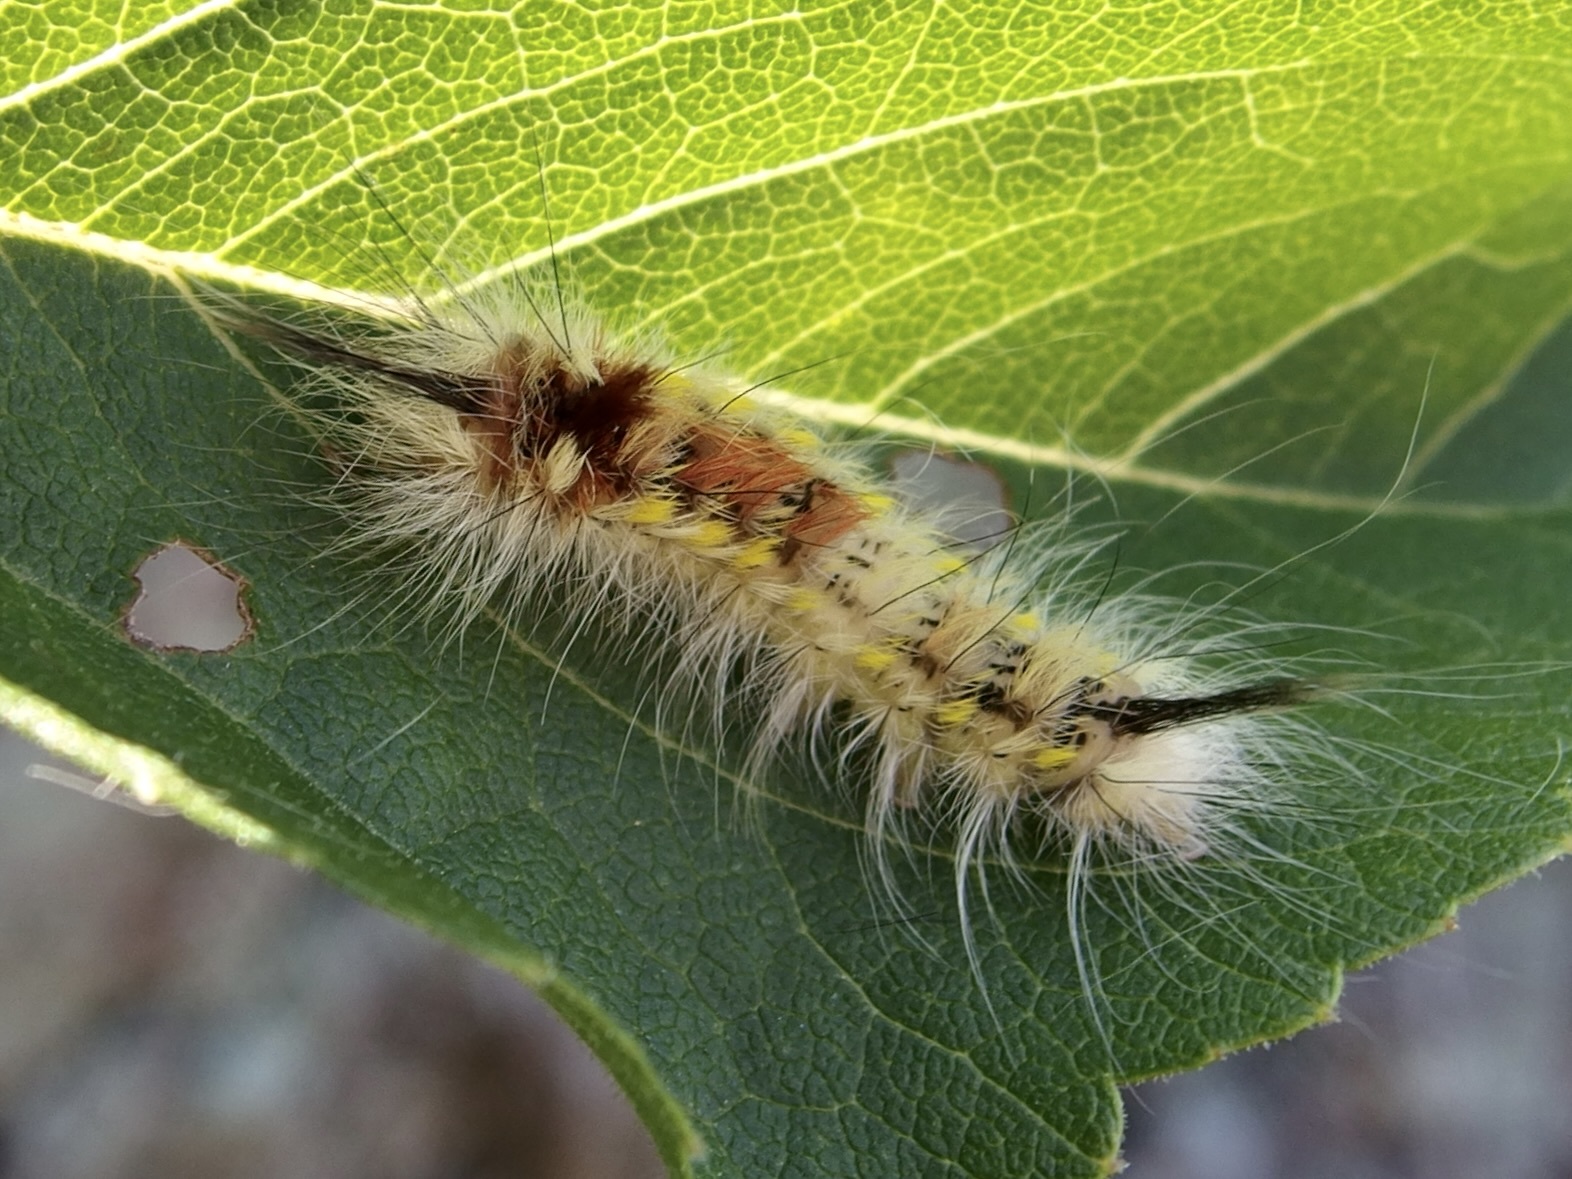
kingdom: Animalia
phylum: Arthropoda
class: Insecta
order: Lepidoptera
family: Apatelodidae
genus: Hygrochroa
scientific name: Hygrochroa Apatelodes pudefacta
